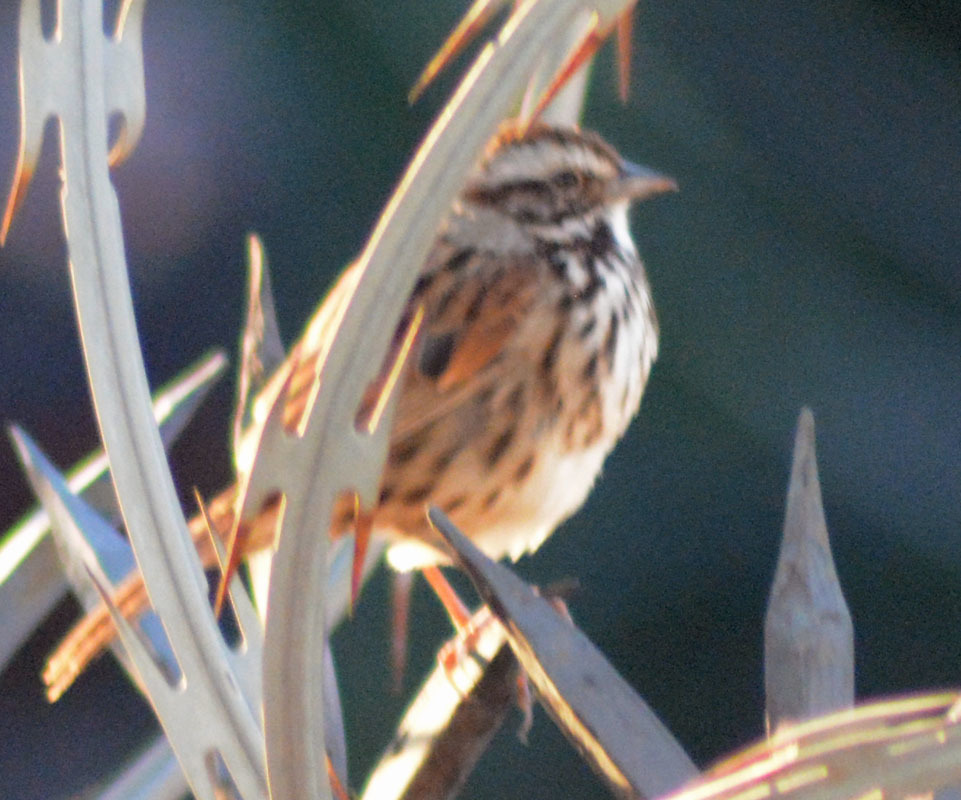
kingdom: Animalia
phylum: Chordata
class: Aves
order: Passeriformes
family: Passerellidae
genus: Melospiza
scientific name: Melospiza melodia
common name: Song sparrow
